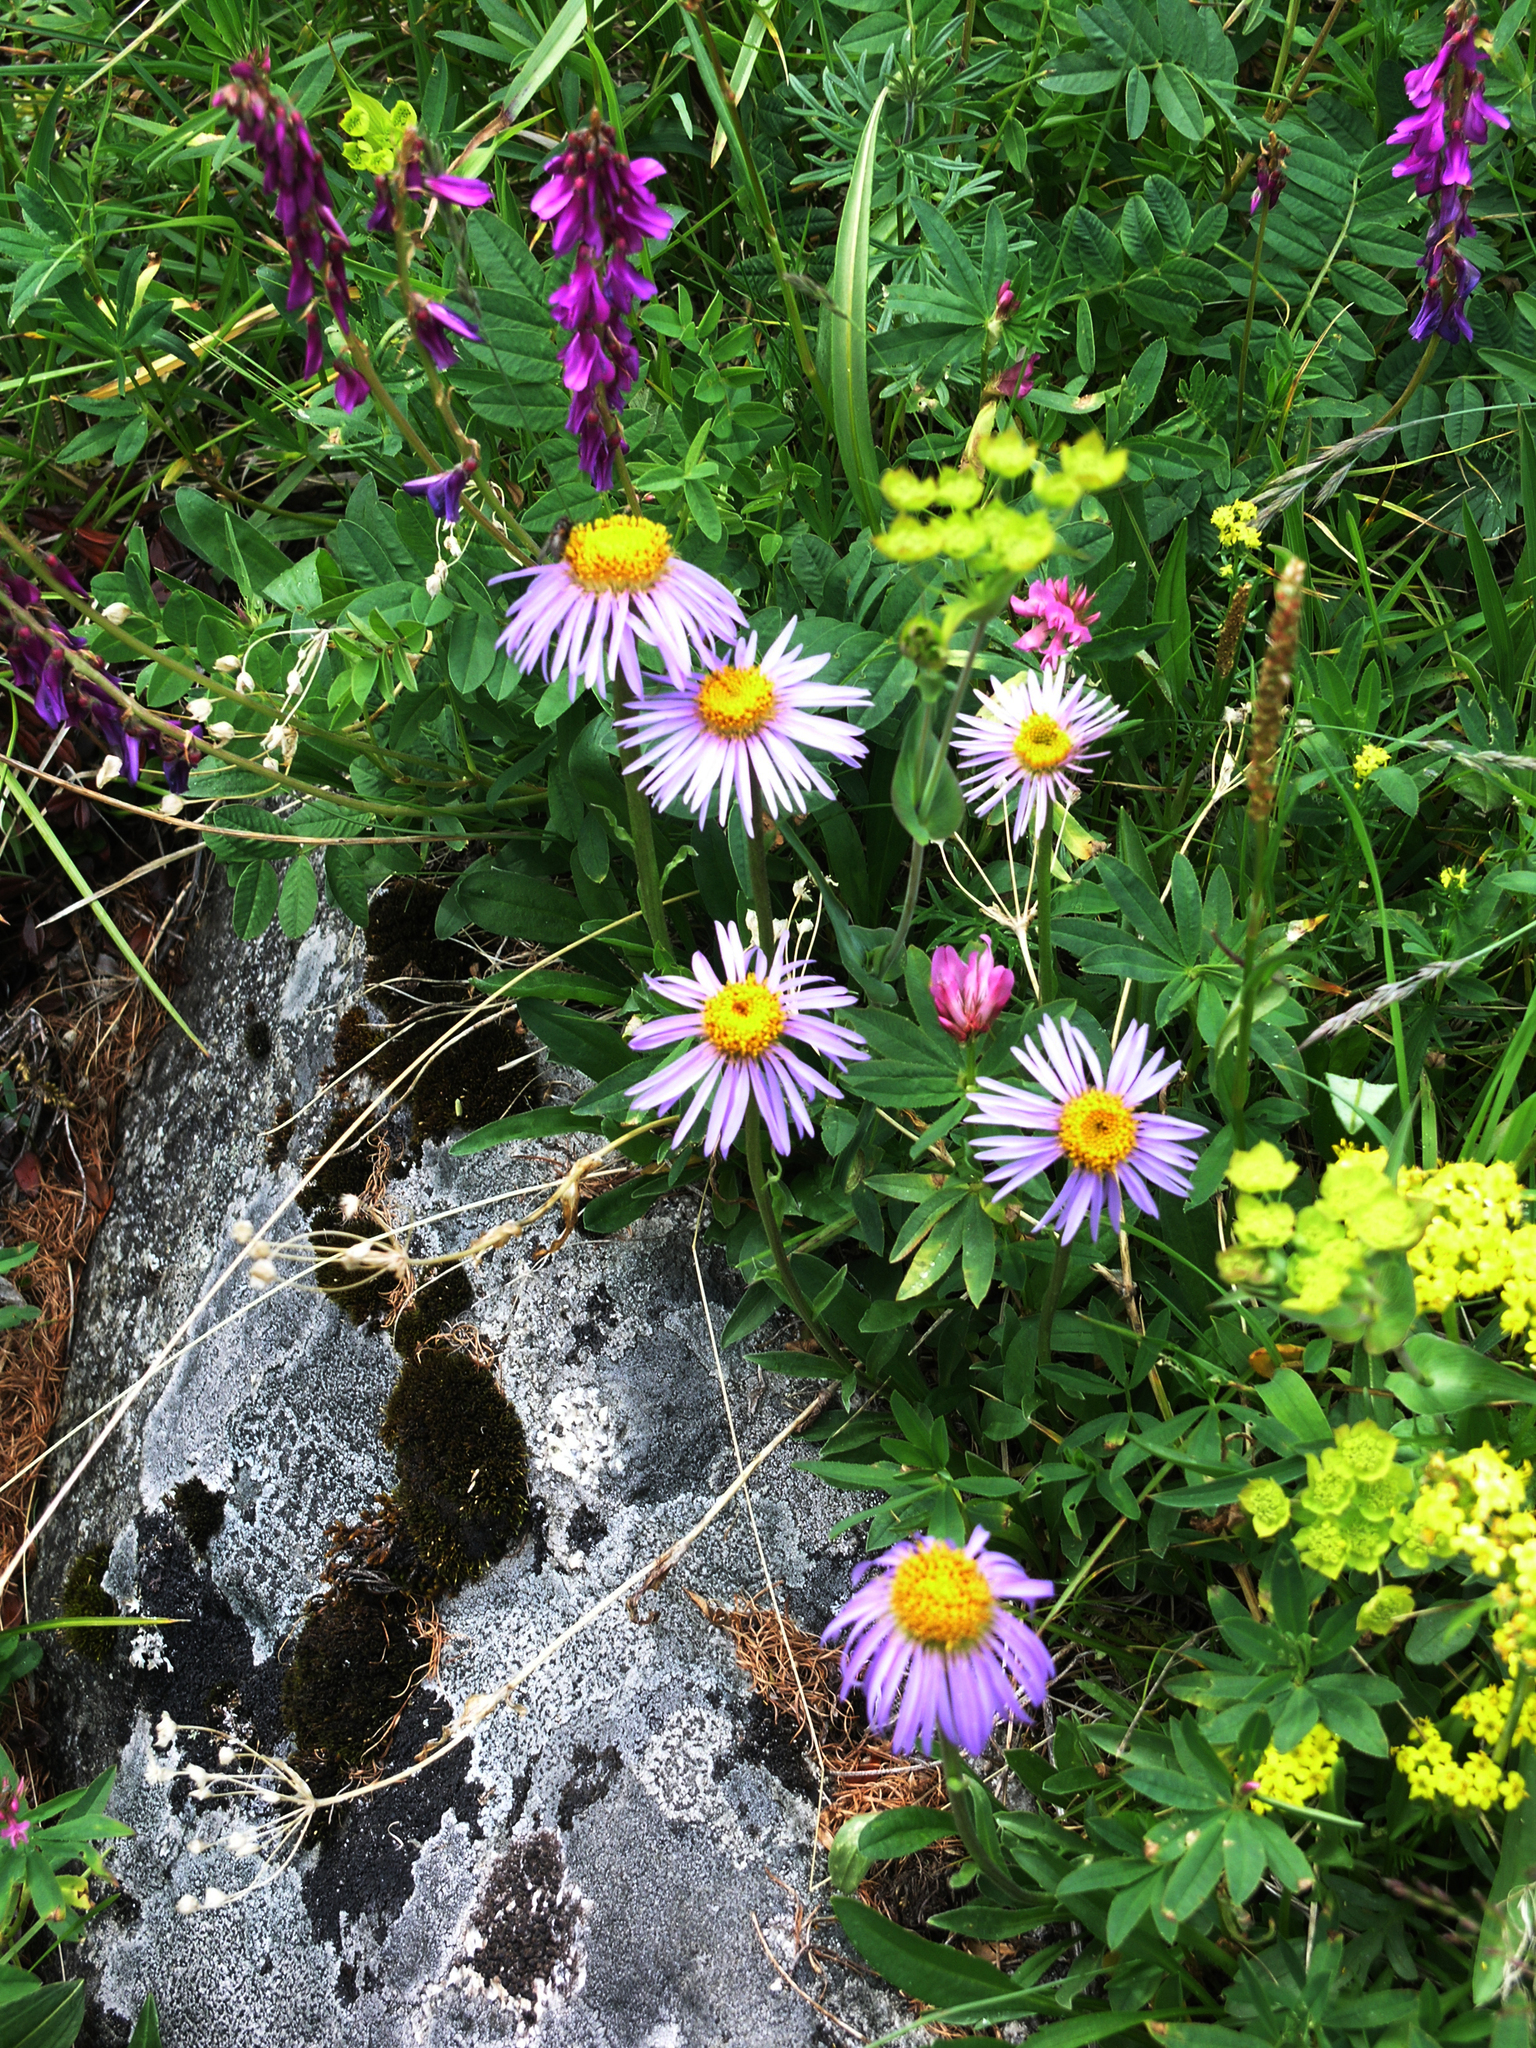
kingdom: Plantae
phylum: Tracheophyta
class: Magnoliopsida
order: Asterales
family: Asteraceae
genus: Aster
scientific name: Aster alpinus
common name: Alpine aster
